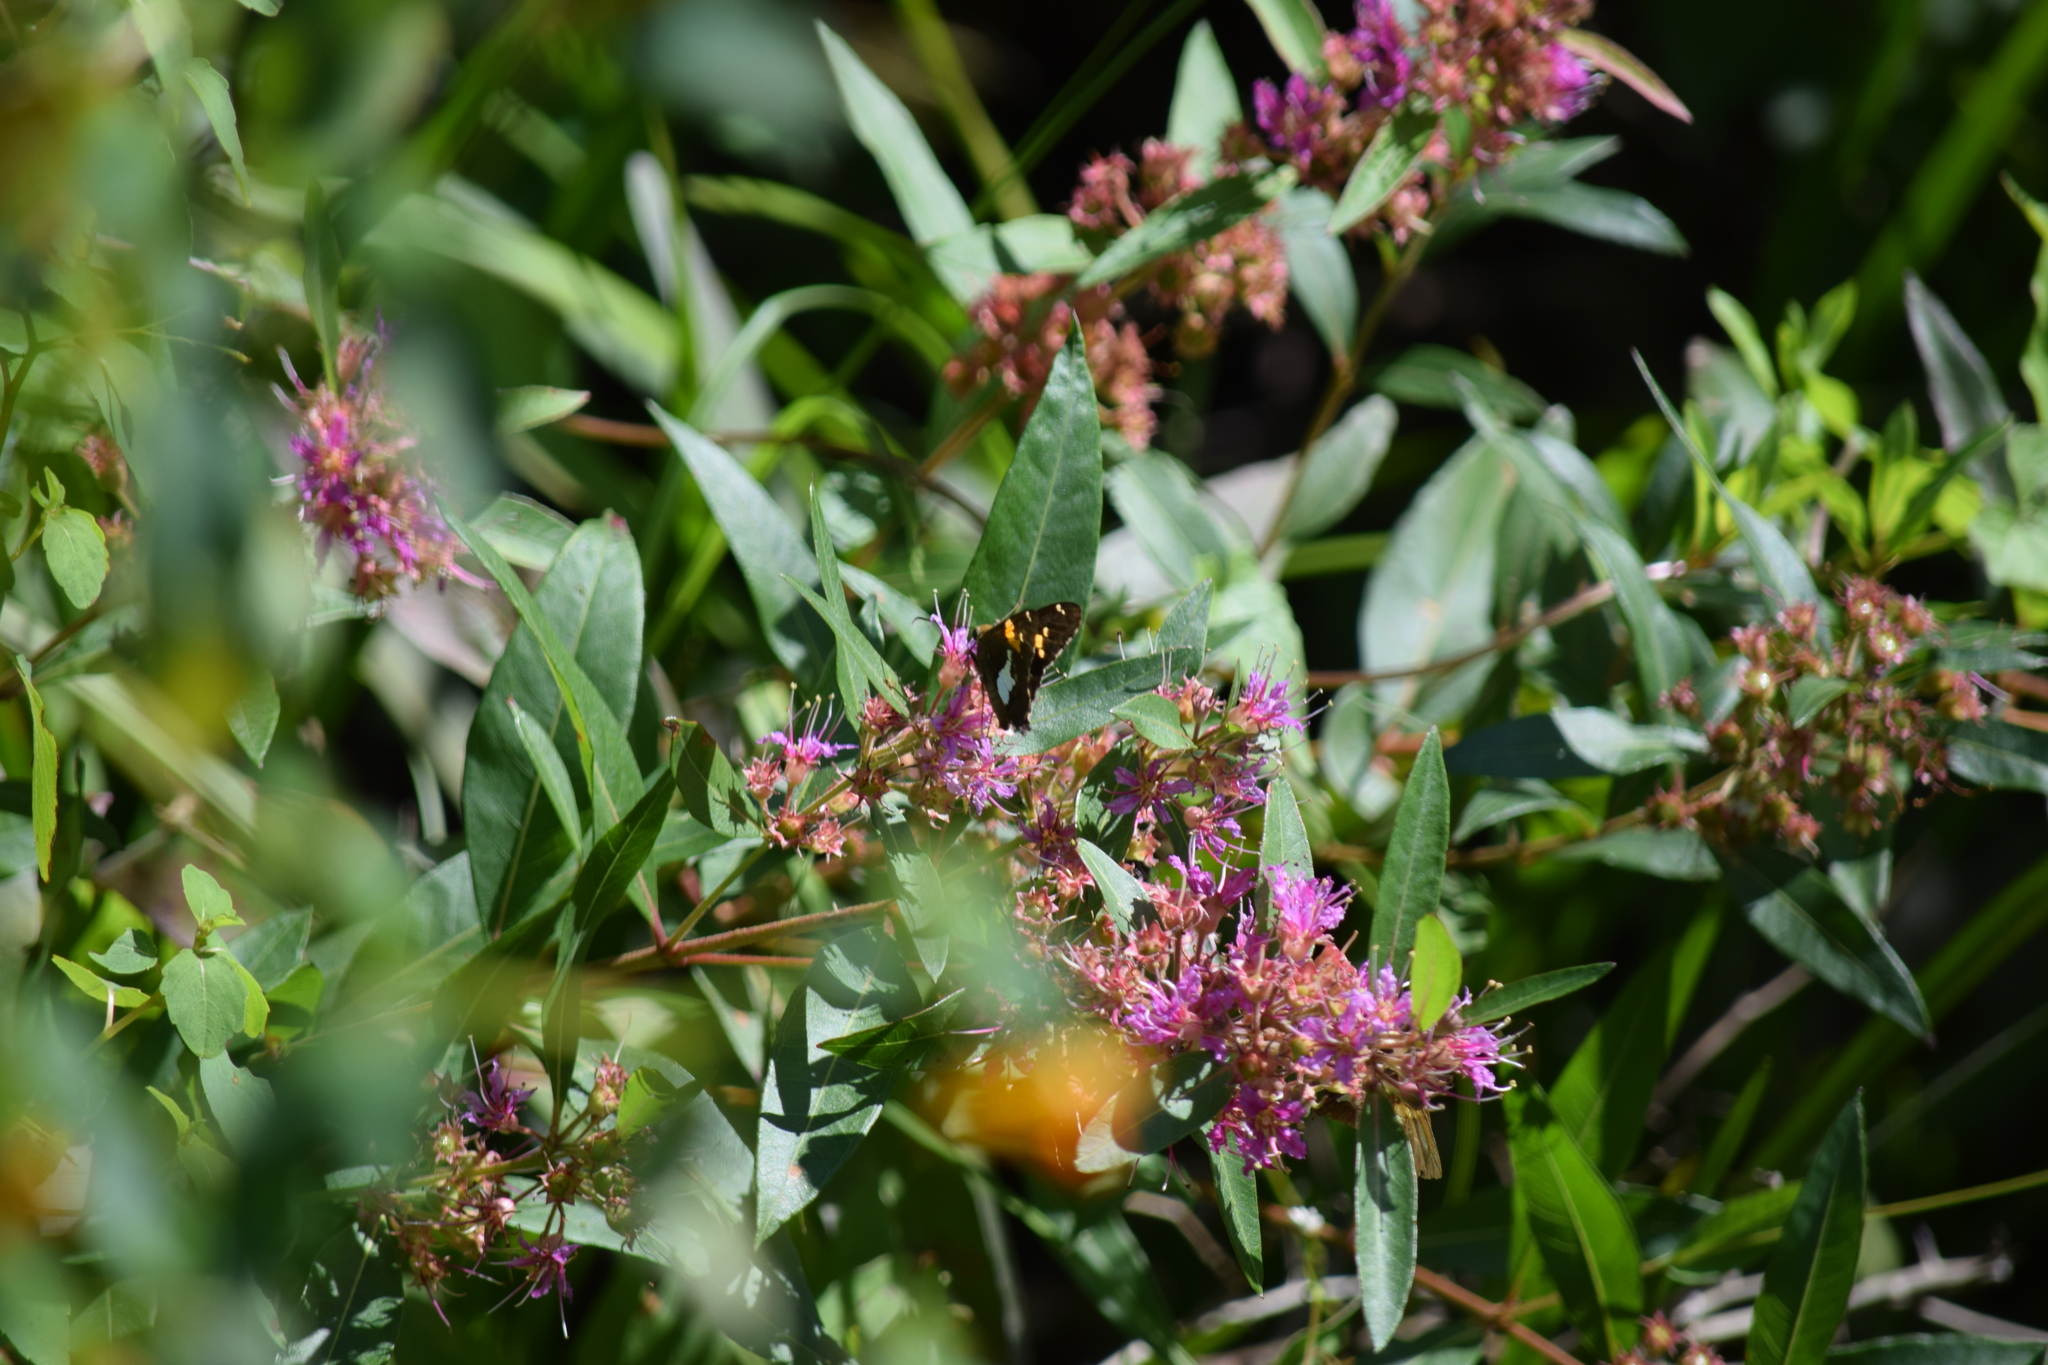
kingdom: Animalia
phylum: Arthropoda
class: Insecta
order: Lepidoptera
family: Hesperiidae
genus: Epargyreus
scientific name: Epargyreus clarus
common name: Silver-spotted skipper
